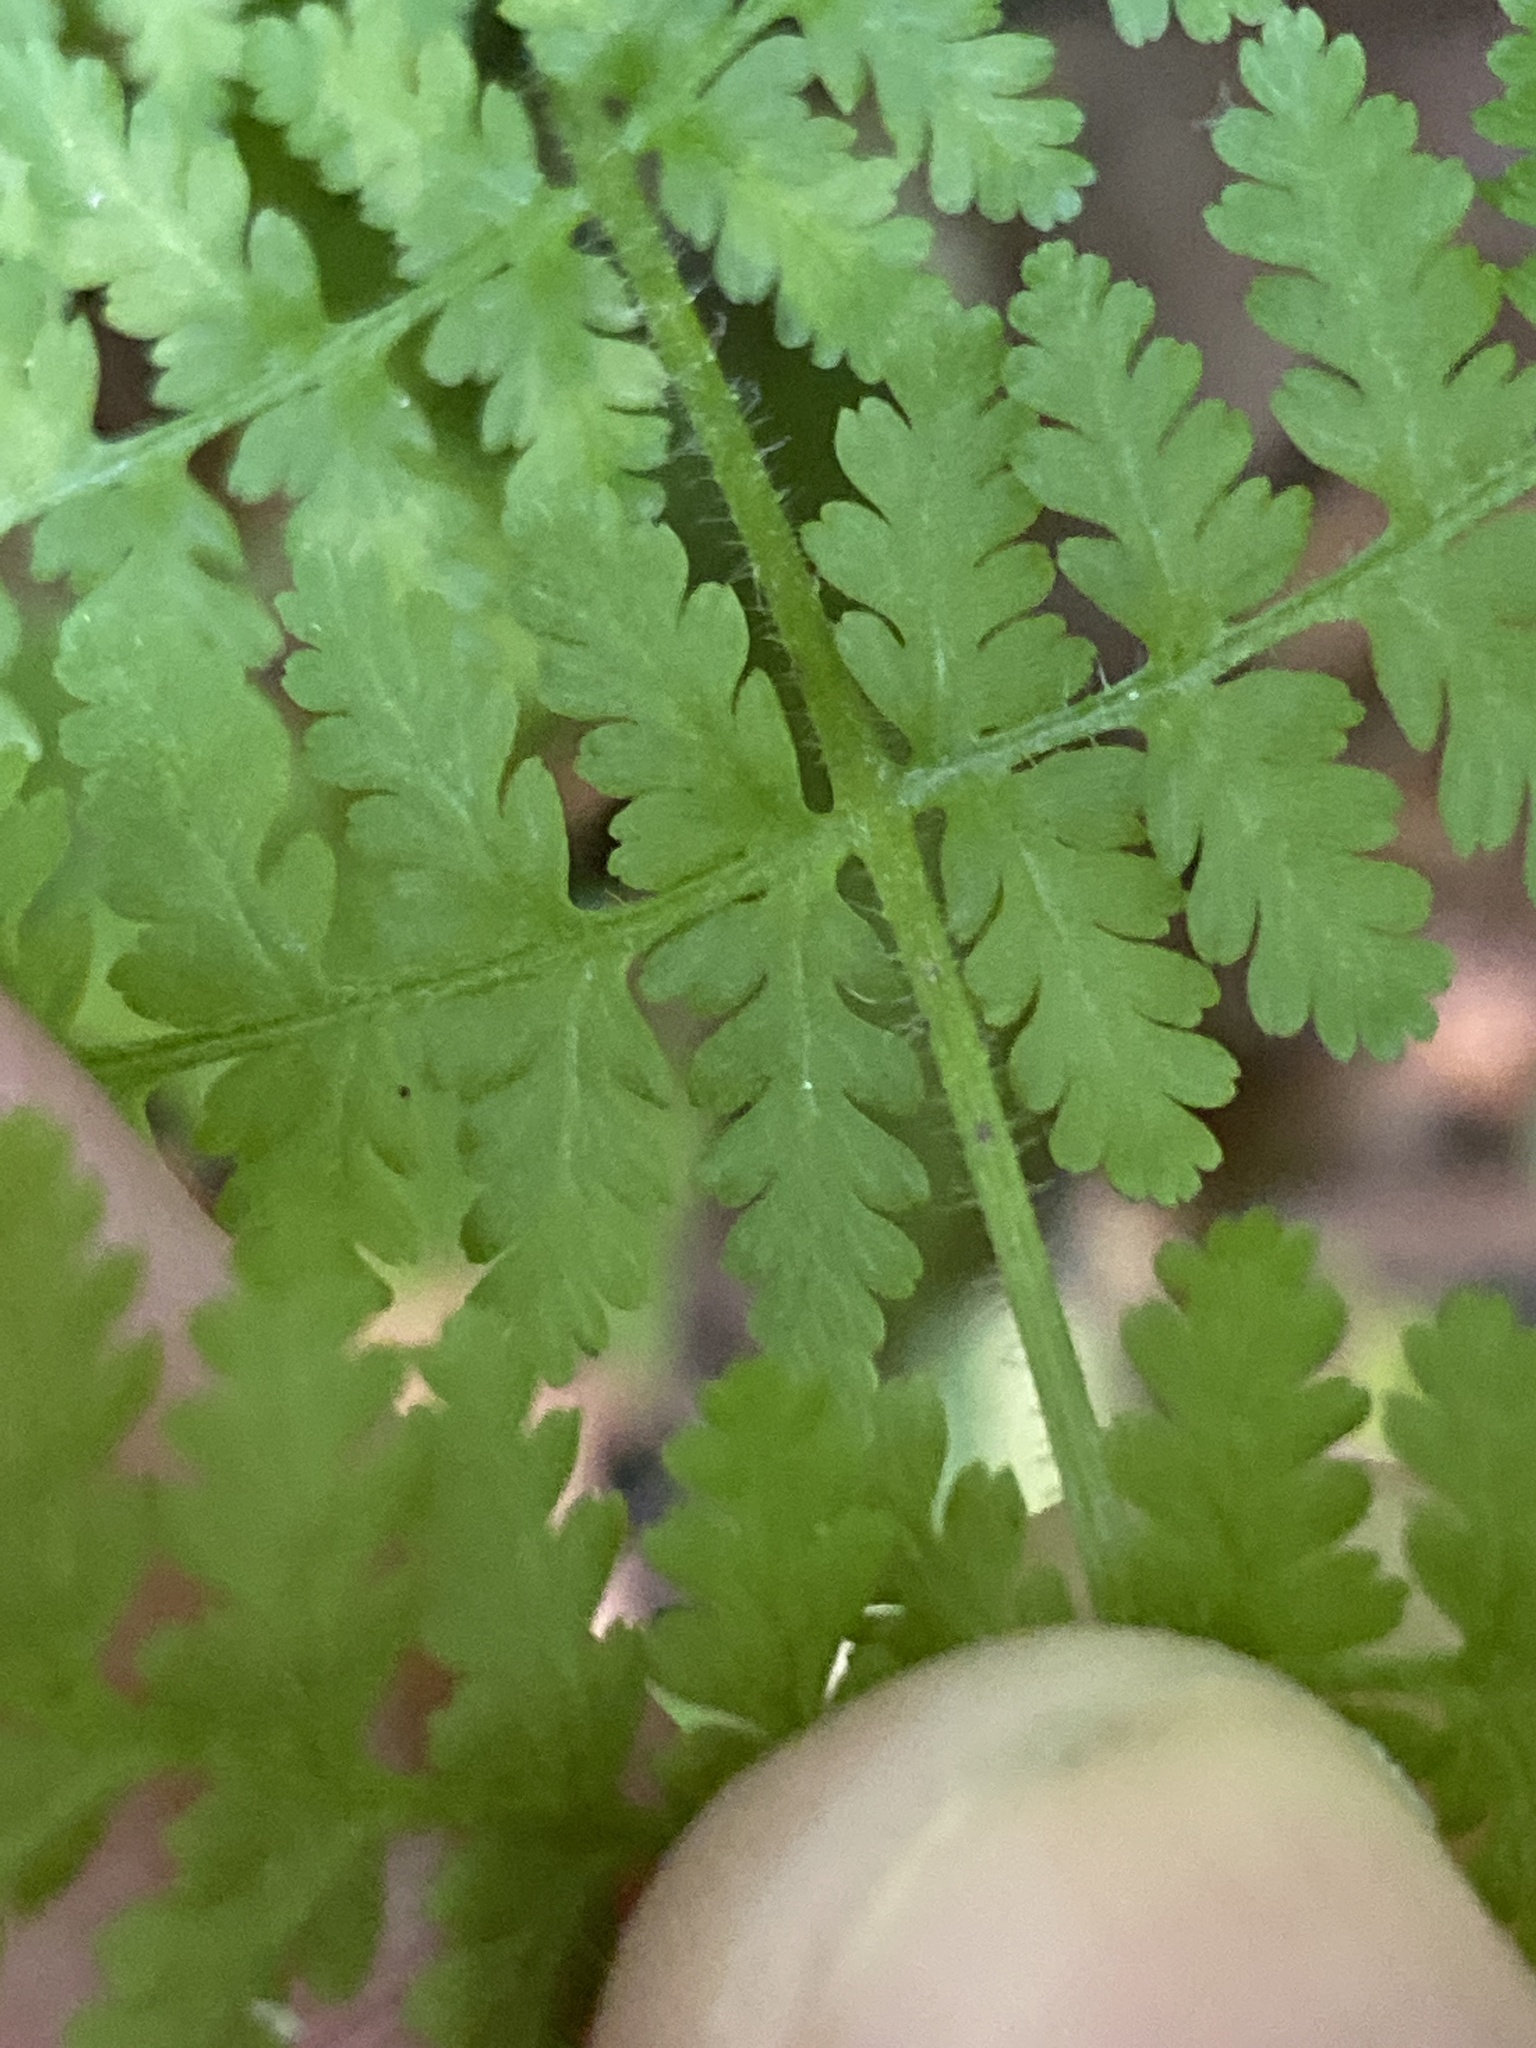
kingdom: Plantae
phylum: Tracheophyta
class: Polypodiopsida
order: Polypodiales
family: Dennstaedtiaceae
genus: Sitobolium
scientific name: Sitobolium punctilobum
